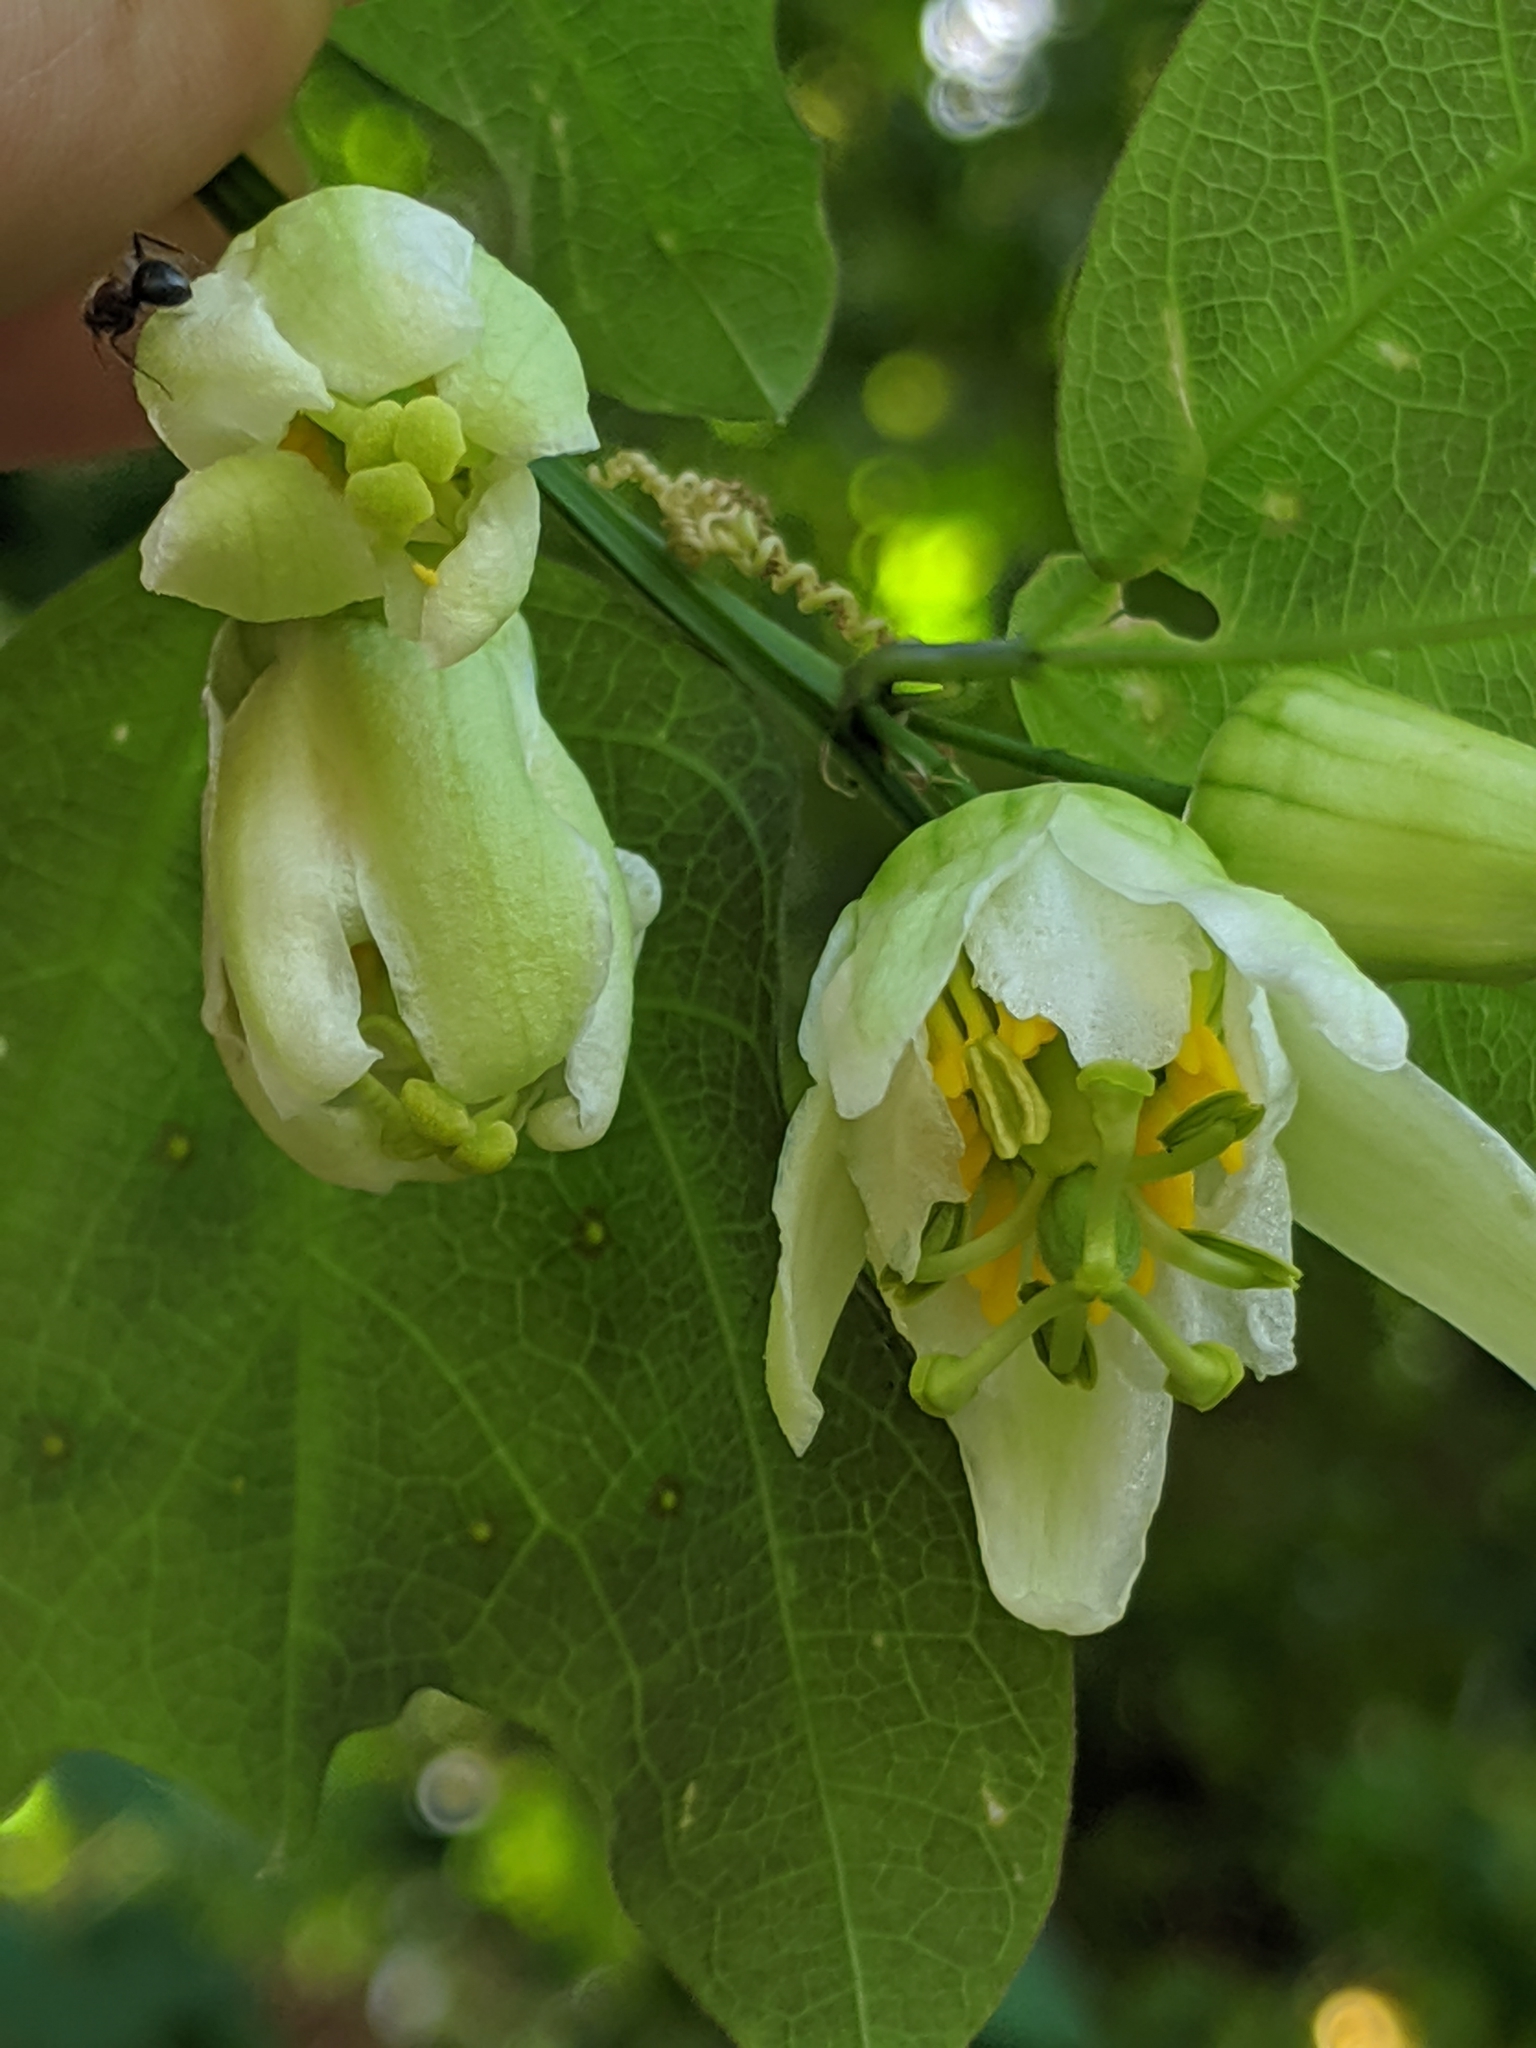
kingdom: Plantae
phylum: Tracheophyta
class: Magnoliopsida
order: Malpighiales
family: Passifloraceae
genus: Passiflora
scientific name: Passiflora biflora
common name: Twoflower passionflower
